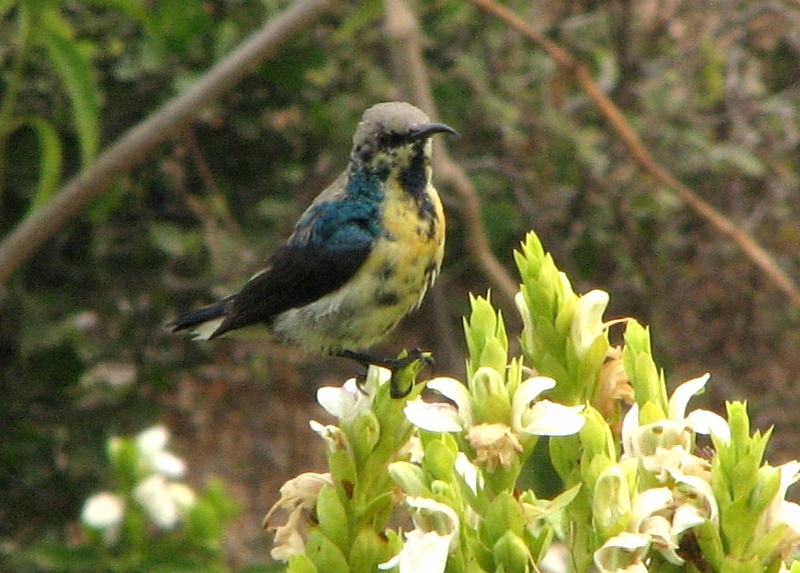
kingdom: Animalia
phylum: Chordata
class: Aves
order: Passeriformes
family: Nectariniidae
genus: Cinnyris
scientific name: Cinnyris asiaticus
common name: Purple sunbird
